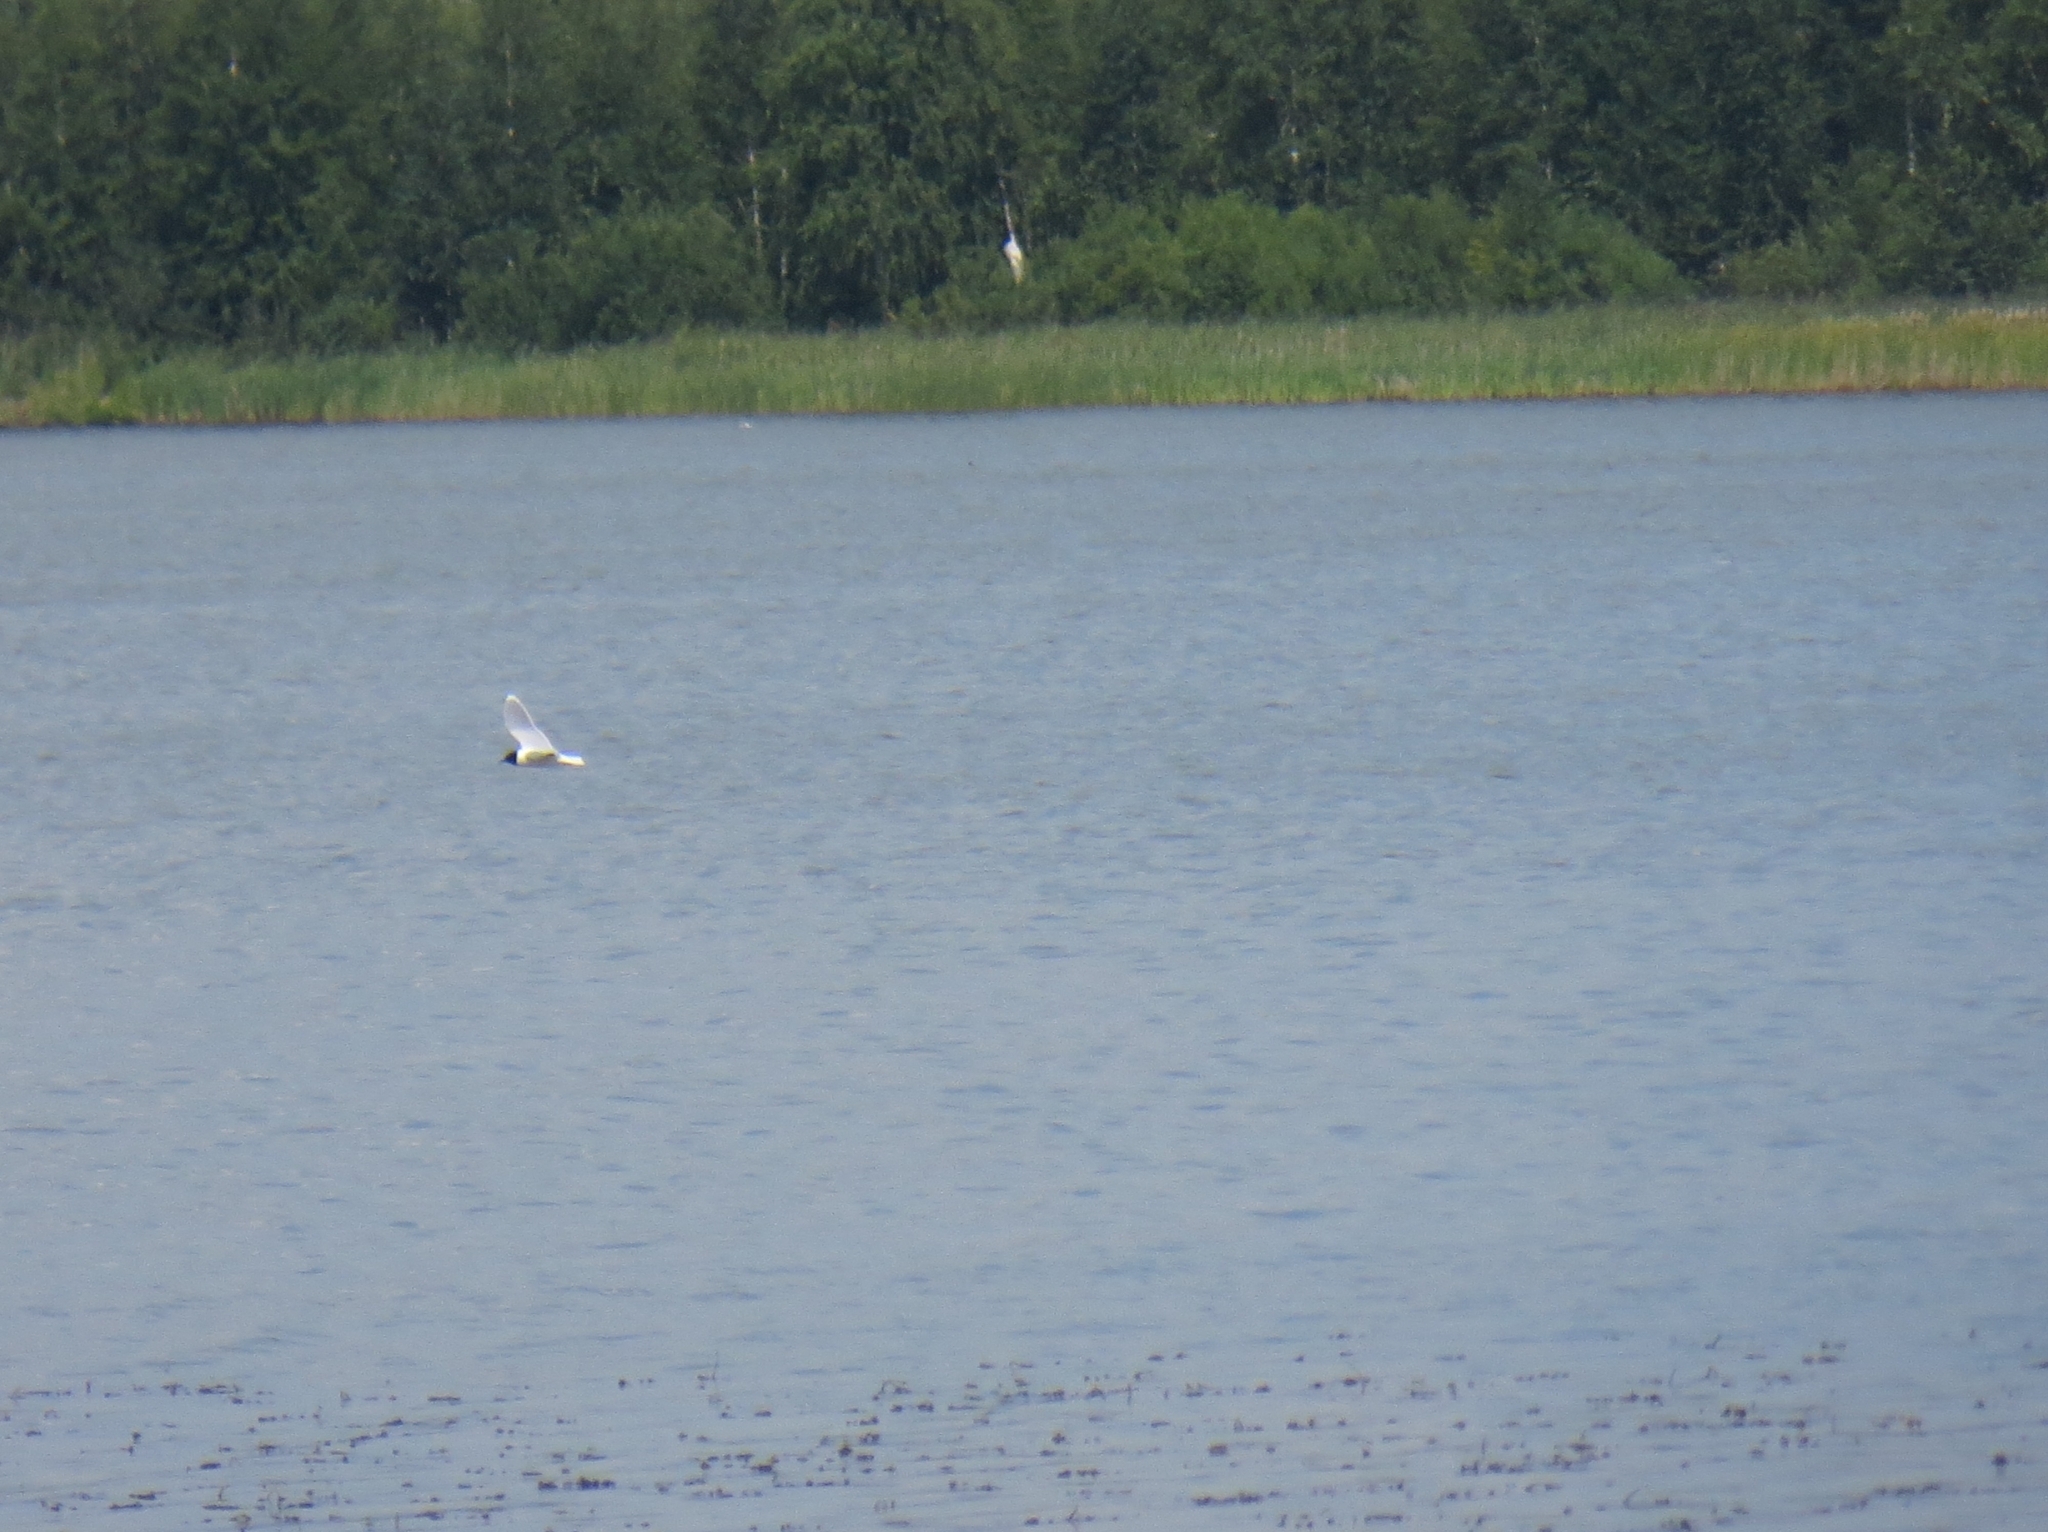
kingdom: Animalia
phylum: Chordata
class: Aves
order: Charadriiformes
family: Laridae
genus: Hydrocoloeus
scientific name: Hydrocoloeus minutus
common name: Little gull
